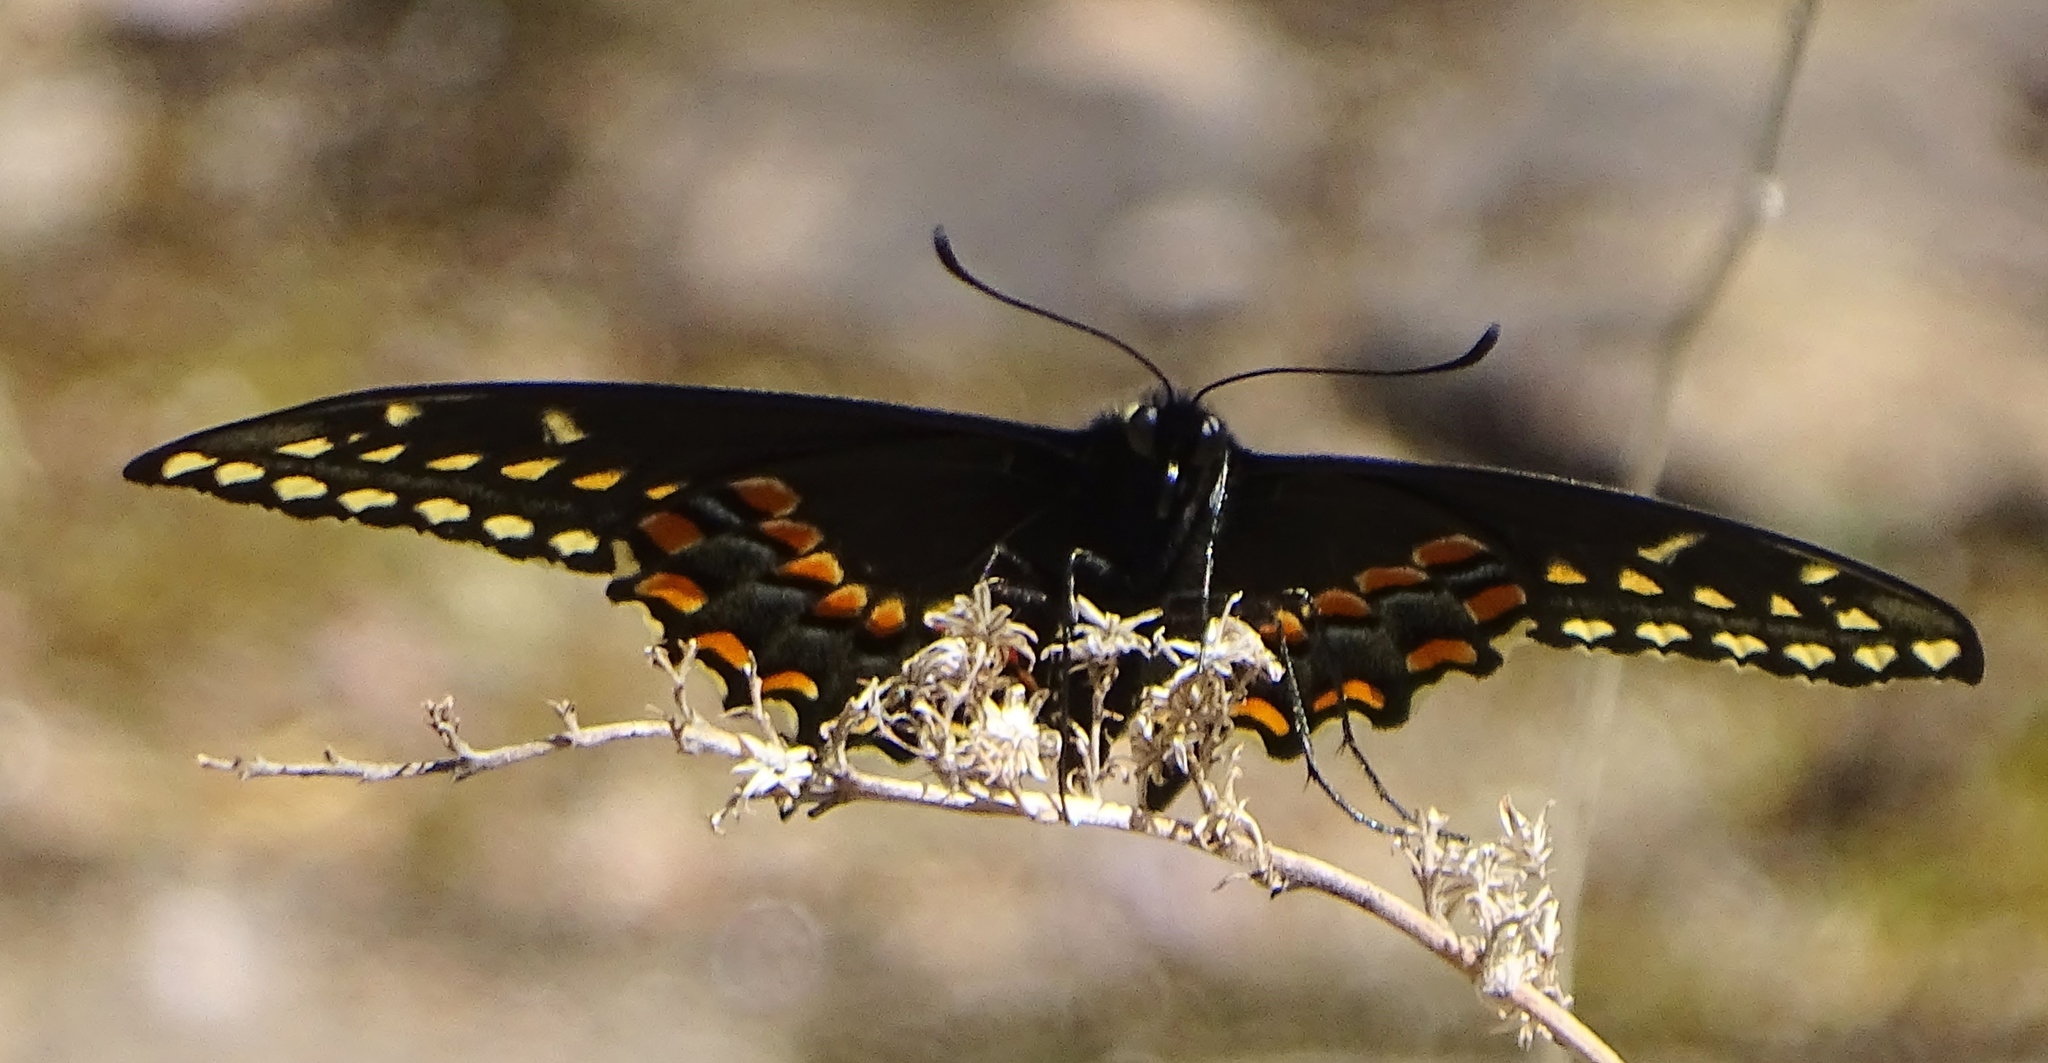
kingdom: Animalia
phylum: Arthropoda
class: Insecta
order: Lepidoptera
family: Papilionidae
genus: Papilio
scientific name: Papilio polyxenes
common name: Black swallowtail
